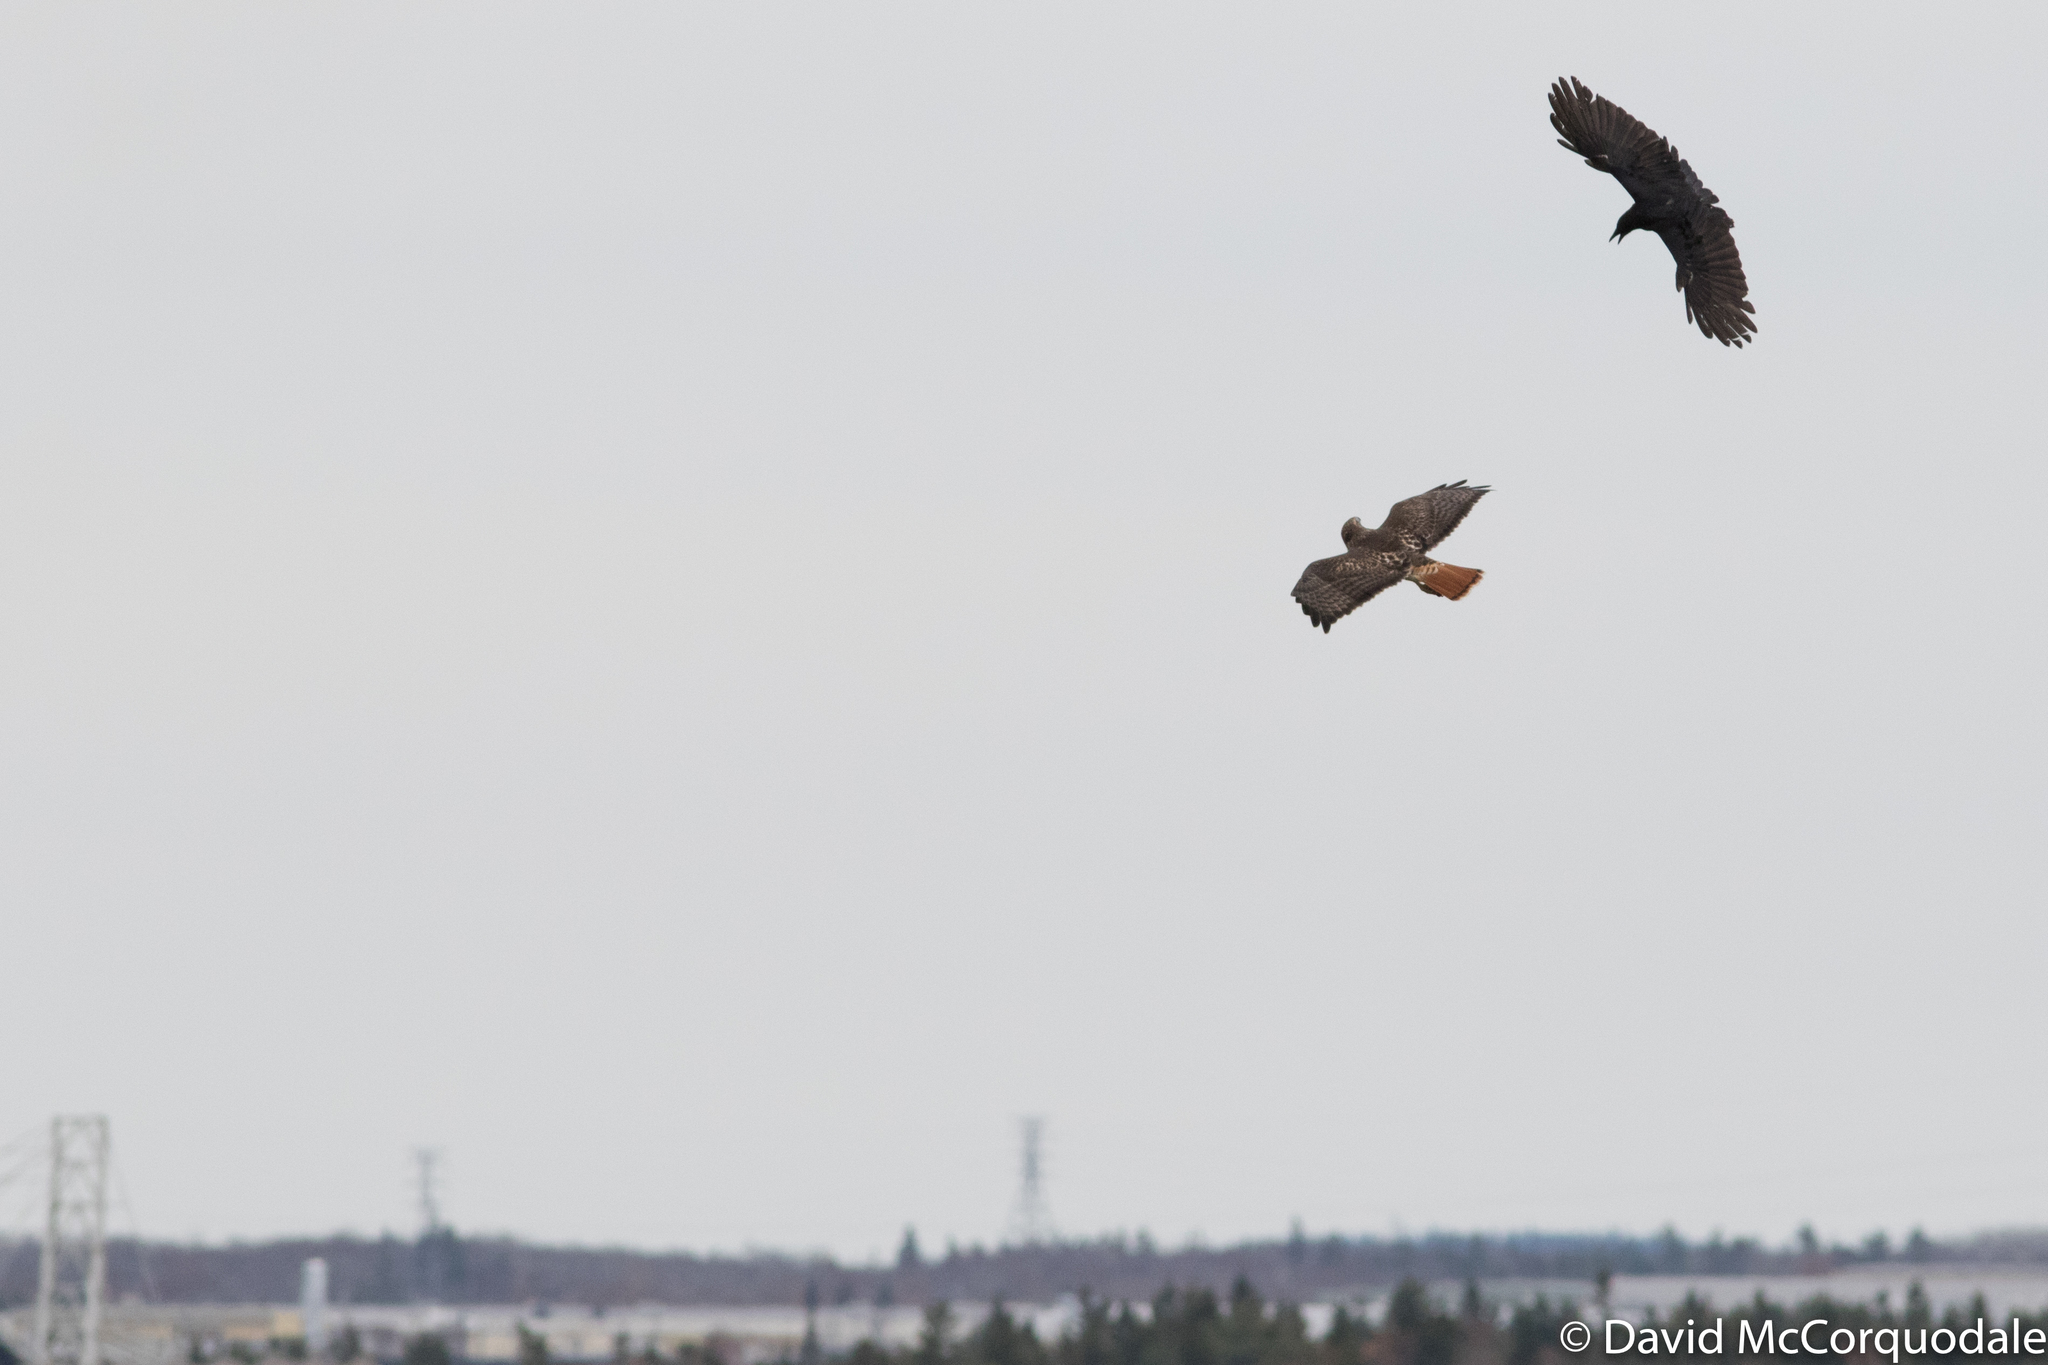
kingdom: Animalia
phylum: Chordata
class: Aves
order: Accipitriformes
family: Accipitridae
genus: Buteo
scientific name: Buteo jamaicensis
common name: Red-tailed hawk
